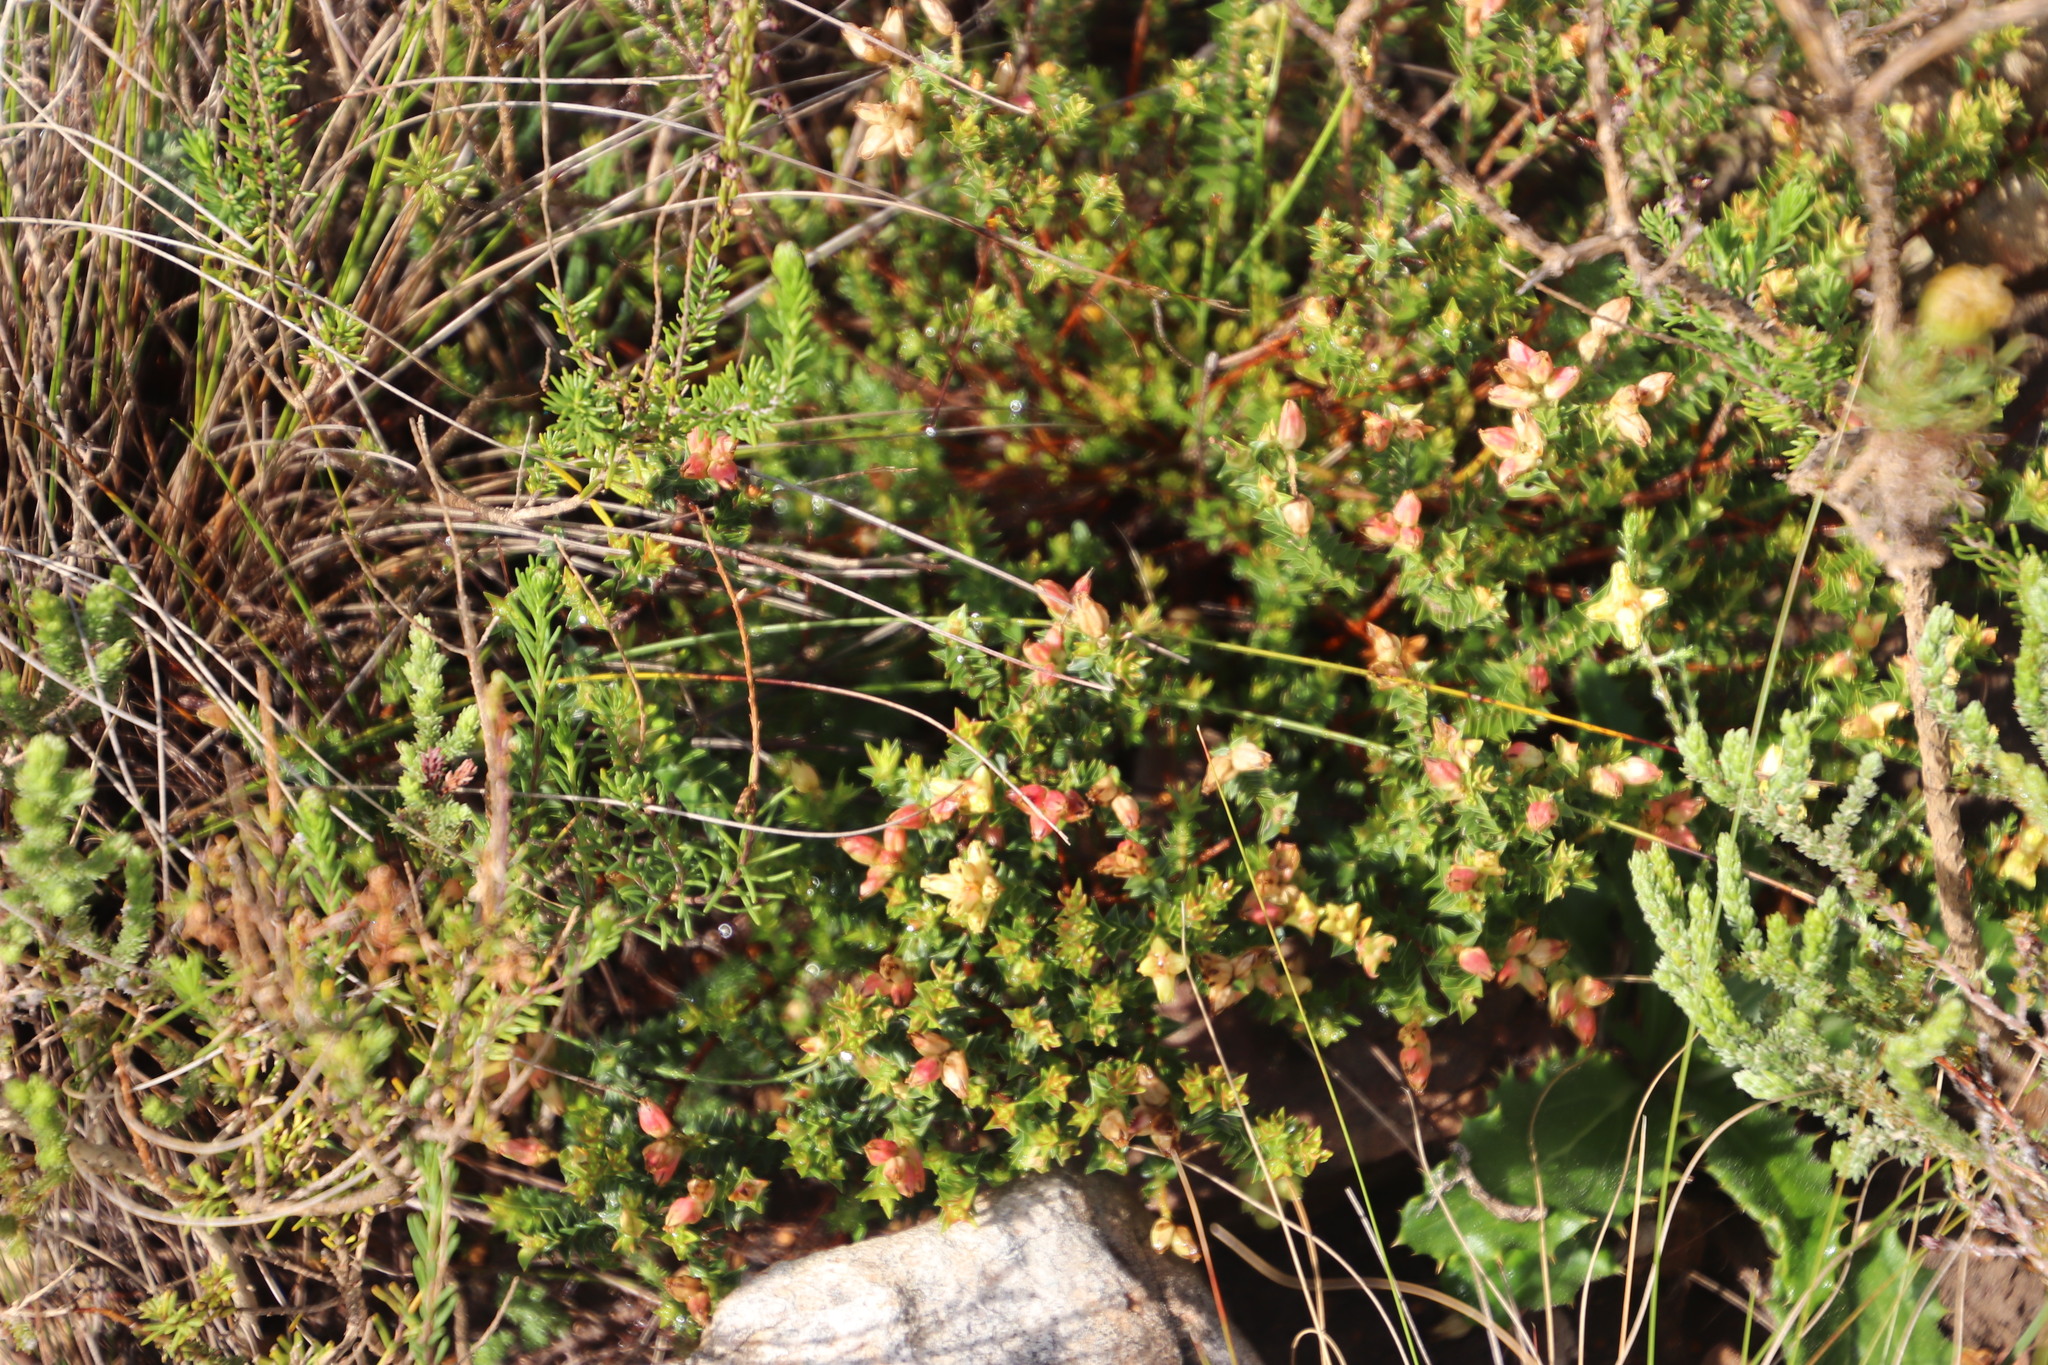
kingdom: Plantae
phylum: Tracheophyta
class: Magnoliopsida
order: Myrtales
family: Penaeaceae
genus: Penaea
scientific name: Penaea mucronata
